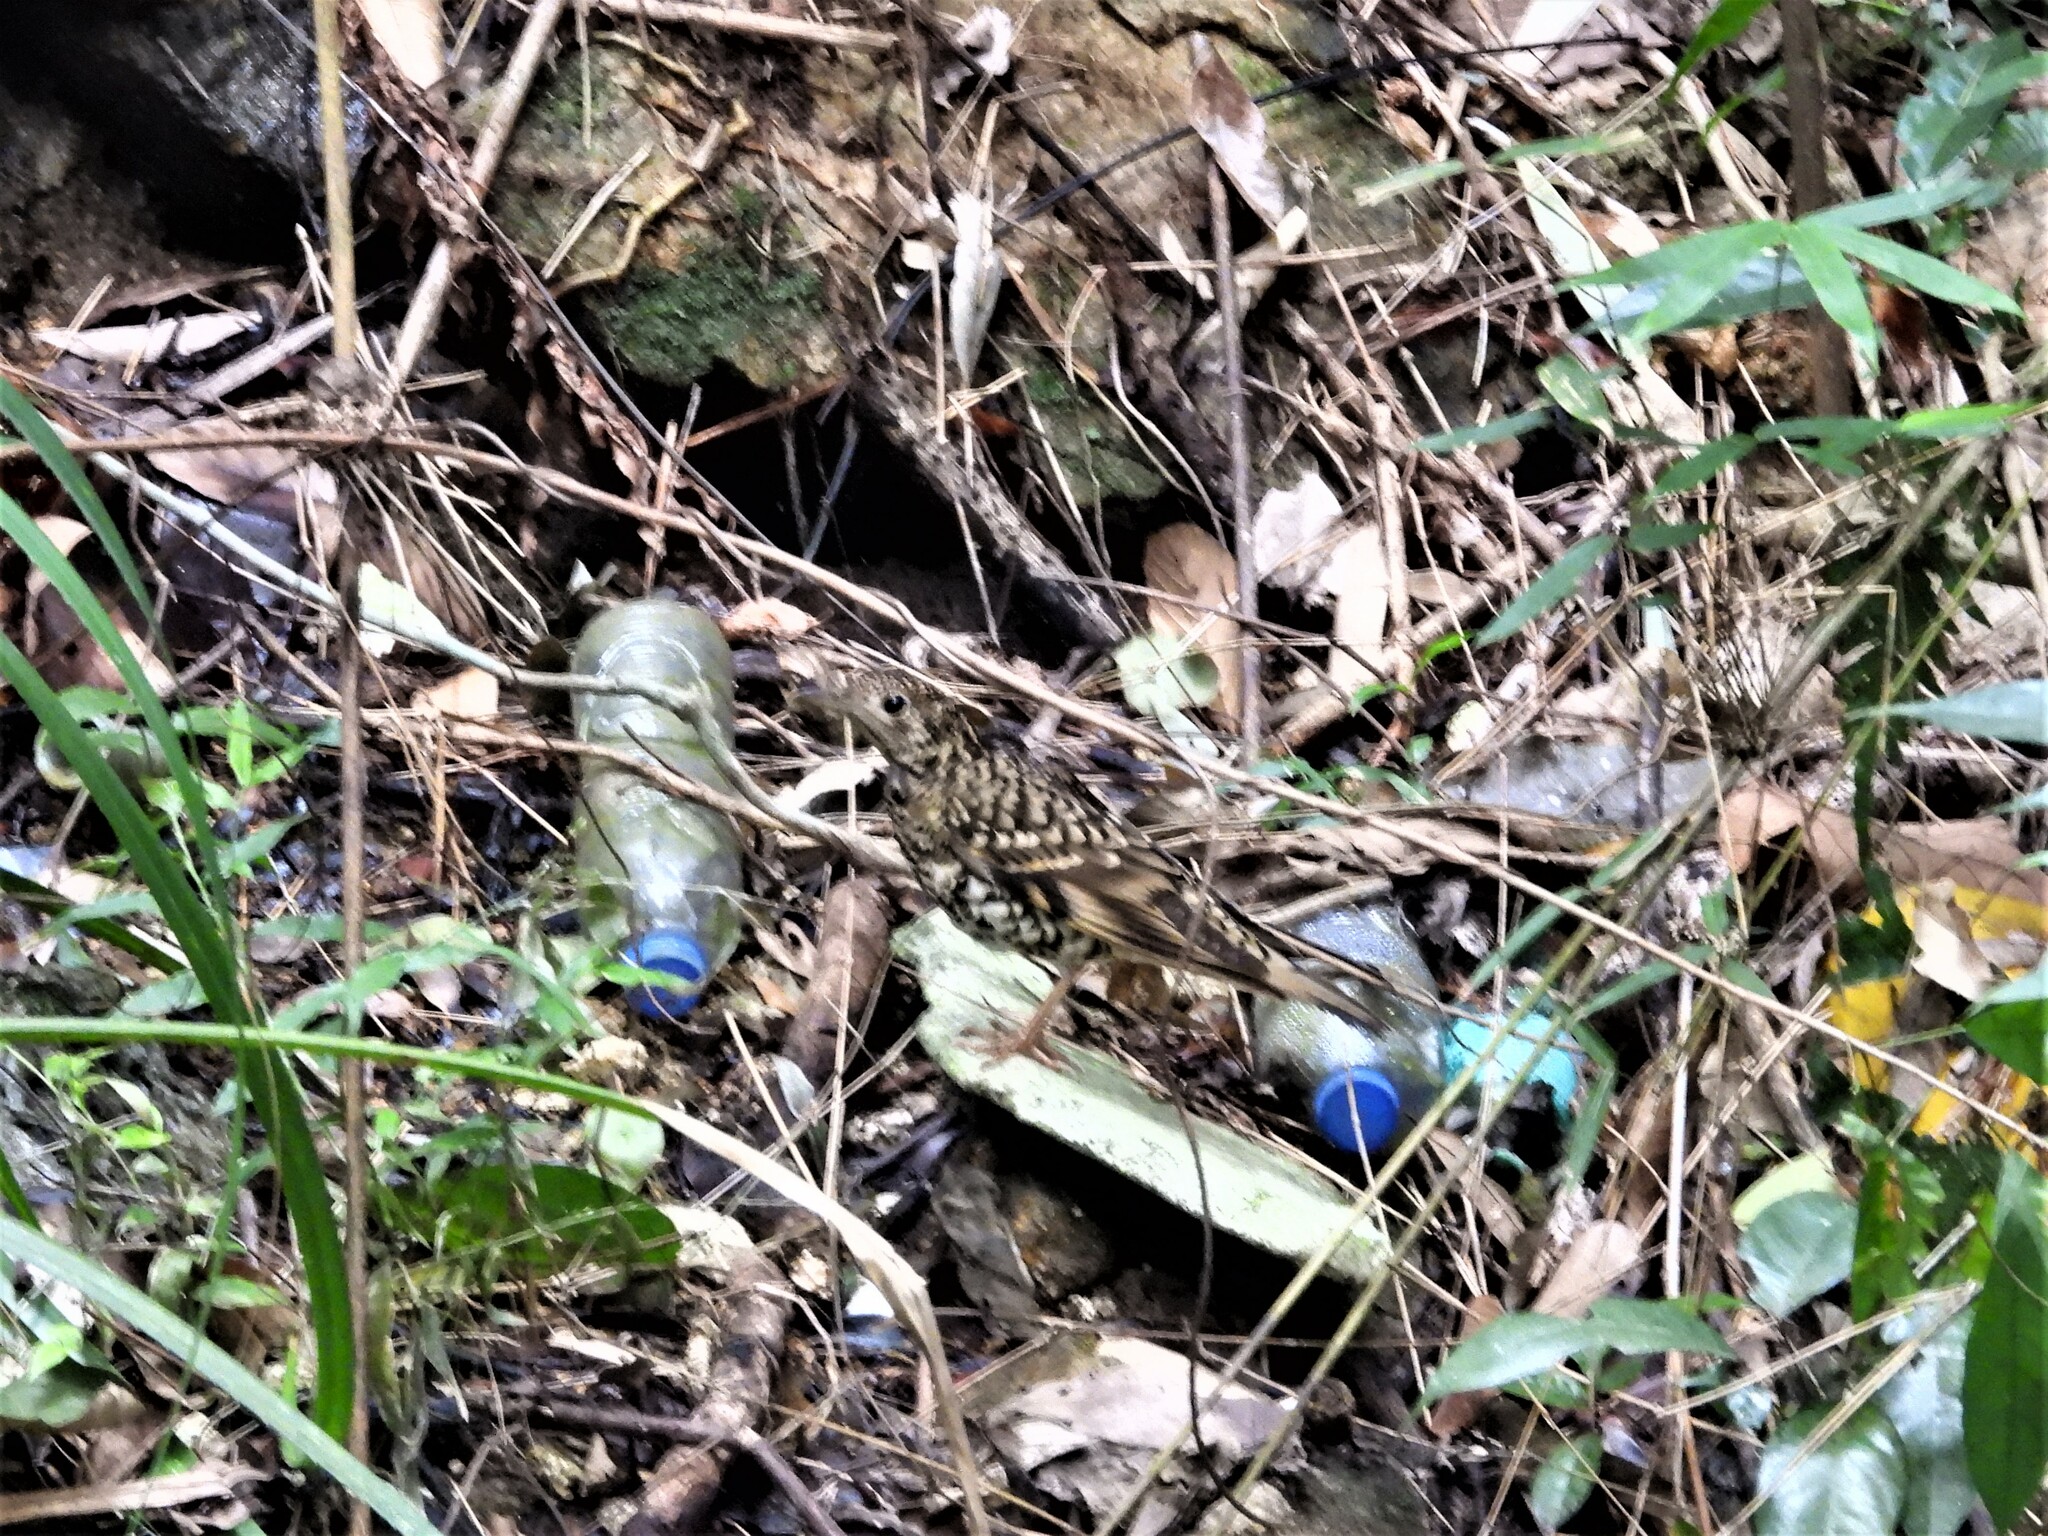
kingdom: Animalia
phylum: Chordata
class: Aves
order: Passeriformes
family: Turdidae
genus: Zoothera
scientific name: Zoothera aurea
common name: White's thrush
